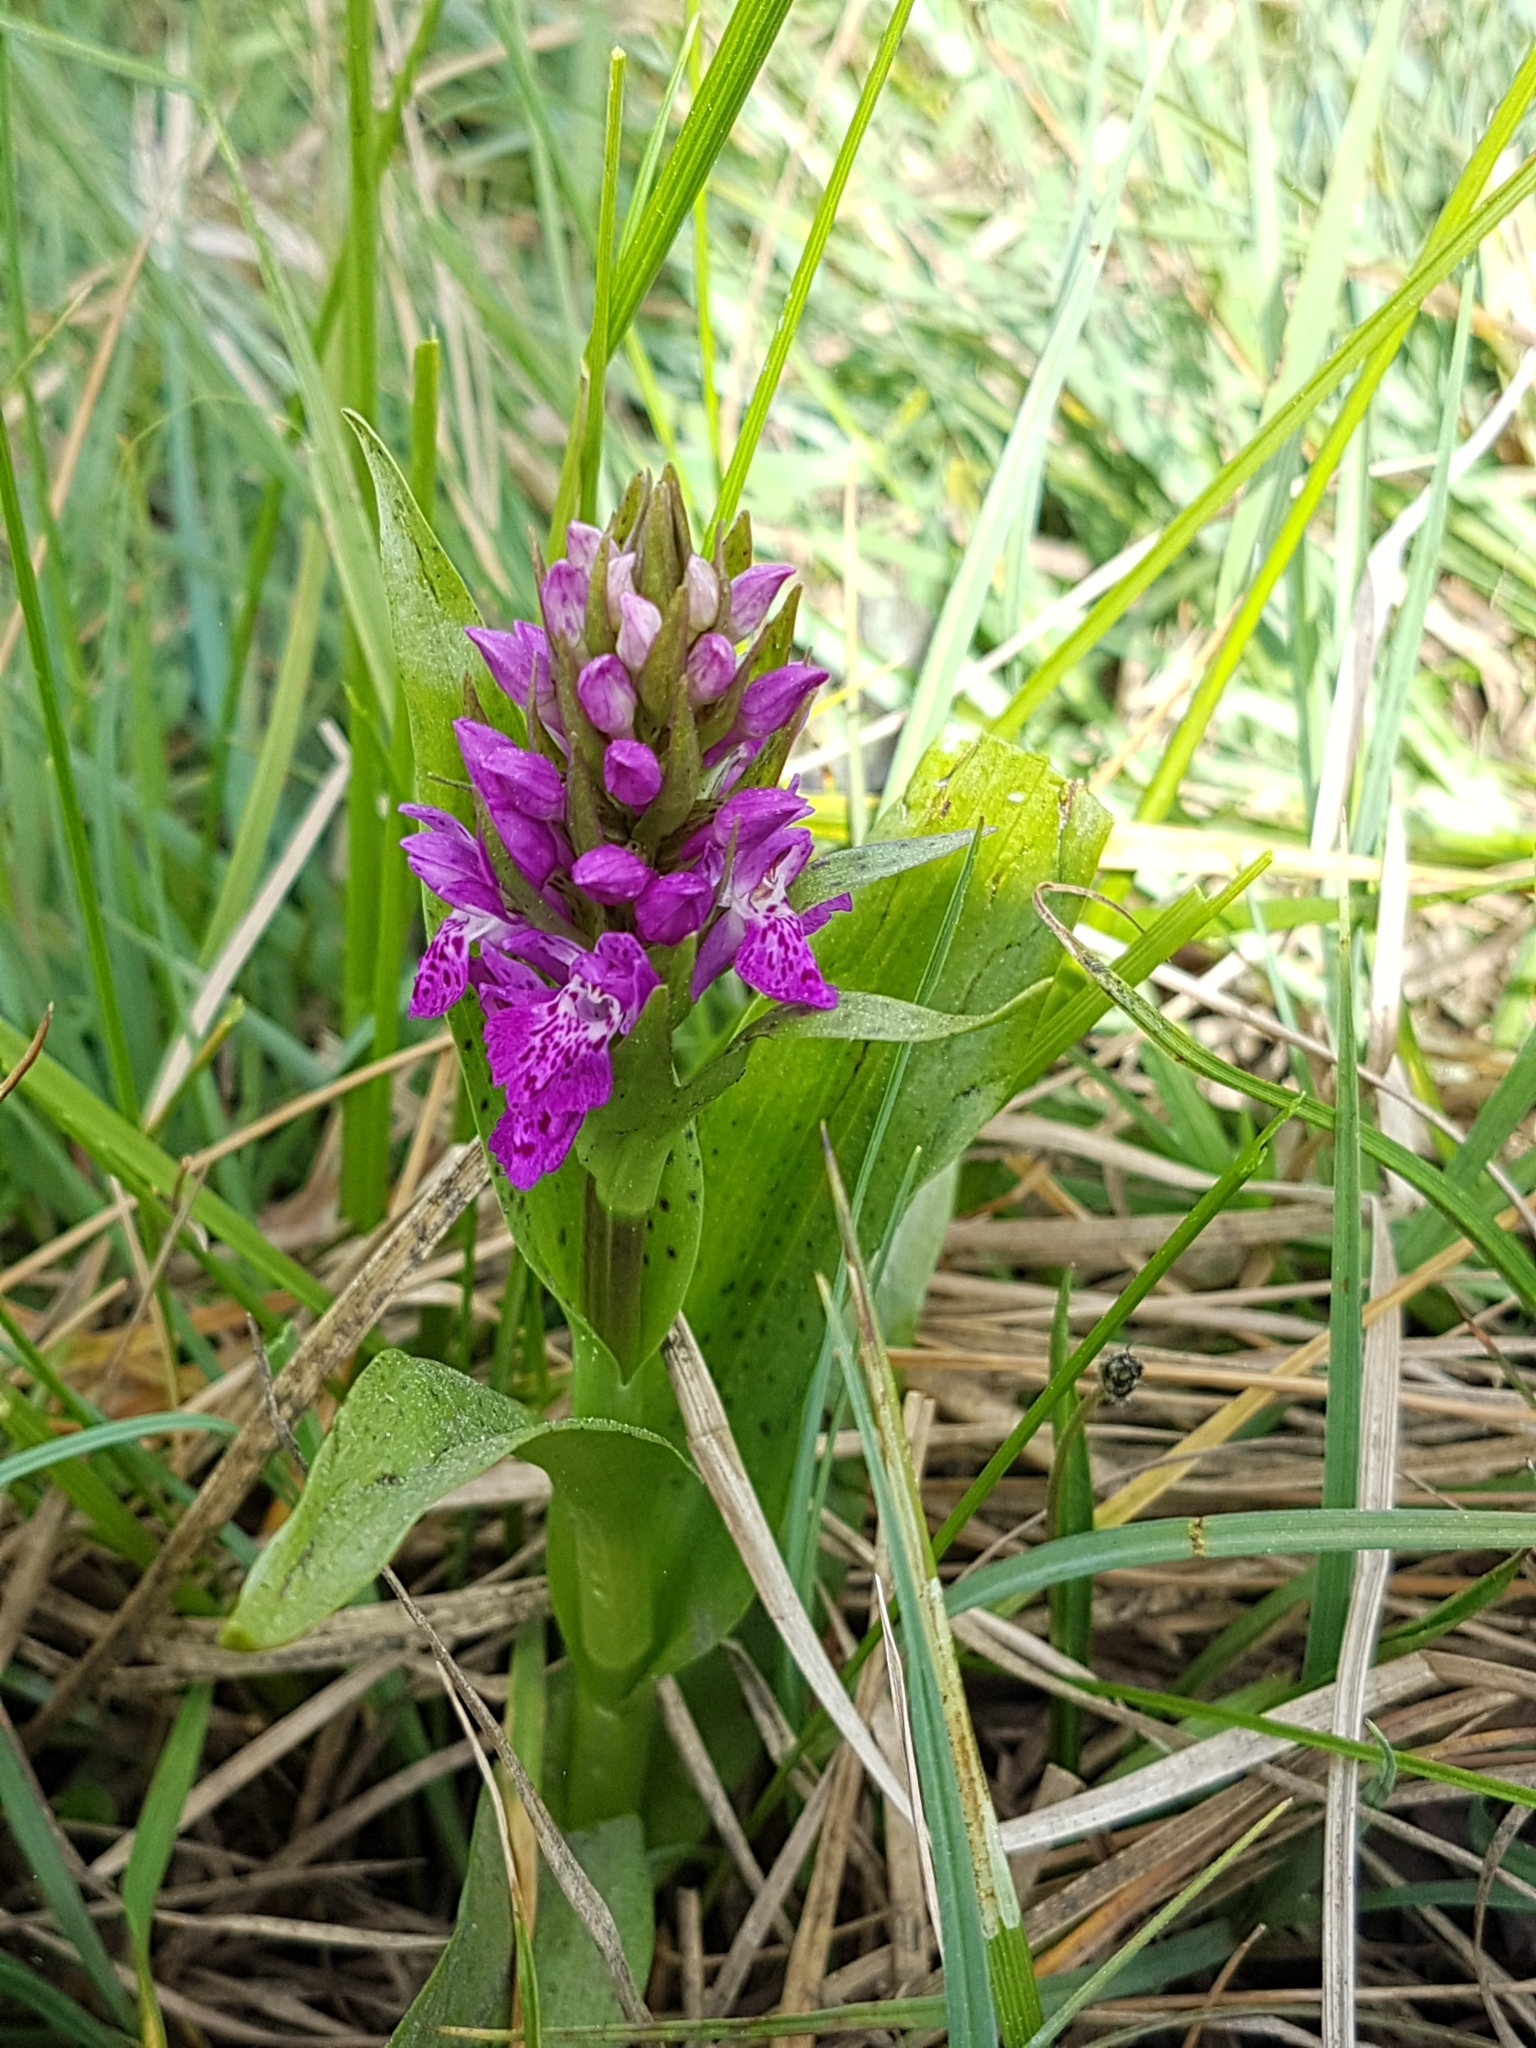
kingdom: Plantae
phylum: Tracheophyta
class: Liliopsida
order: Asparagales
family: Orchidaceae
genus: Dactylorhiza
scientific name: Dactylorhiza majalis
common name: Marsh orchid
